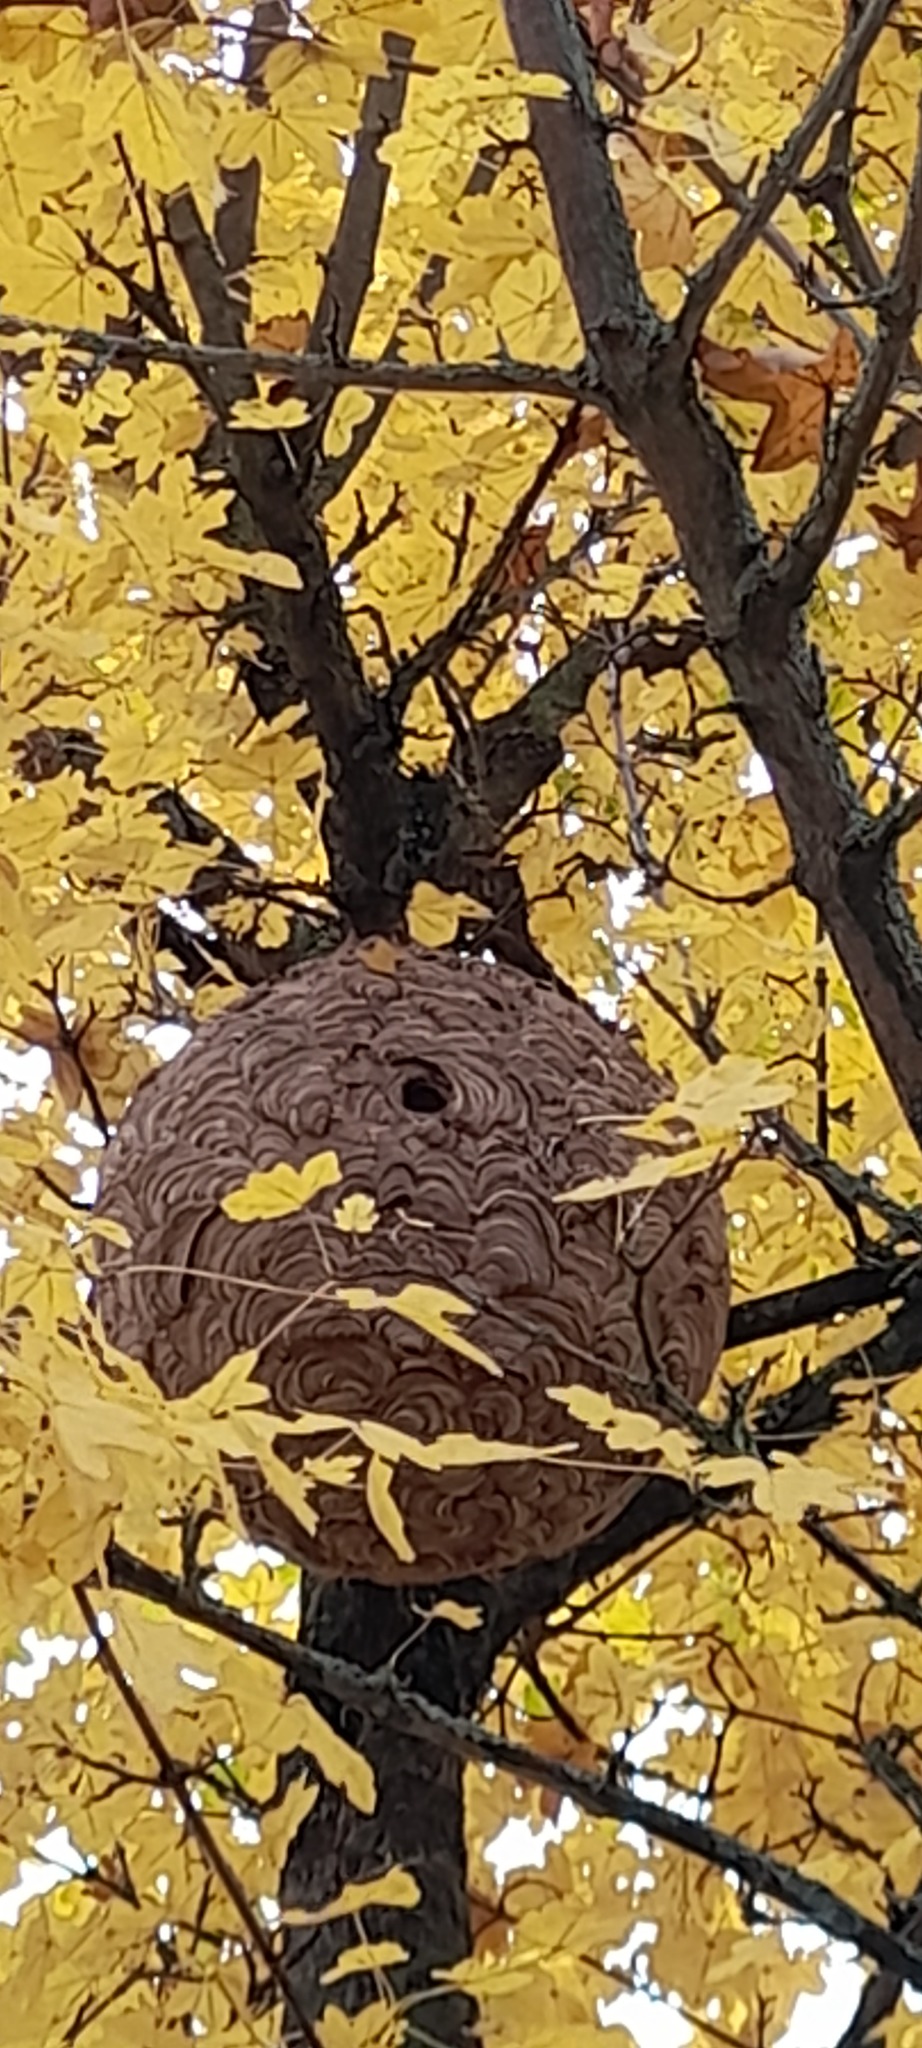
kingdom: Animalia
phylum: Arthropoda
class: Insecta
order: Hymenoptera
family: Vespidae
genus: Vespa
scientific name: Vespa velutina
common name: Asian hornet
